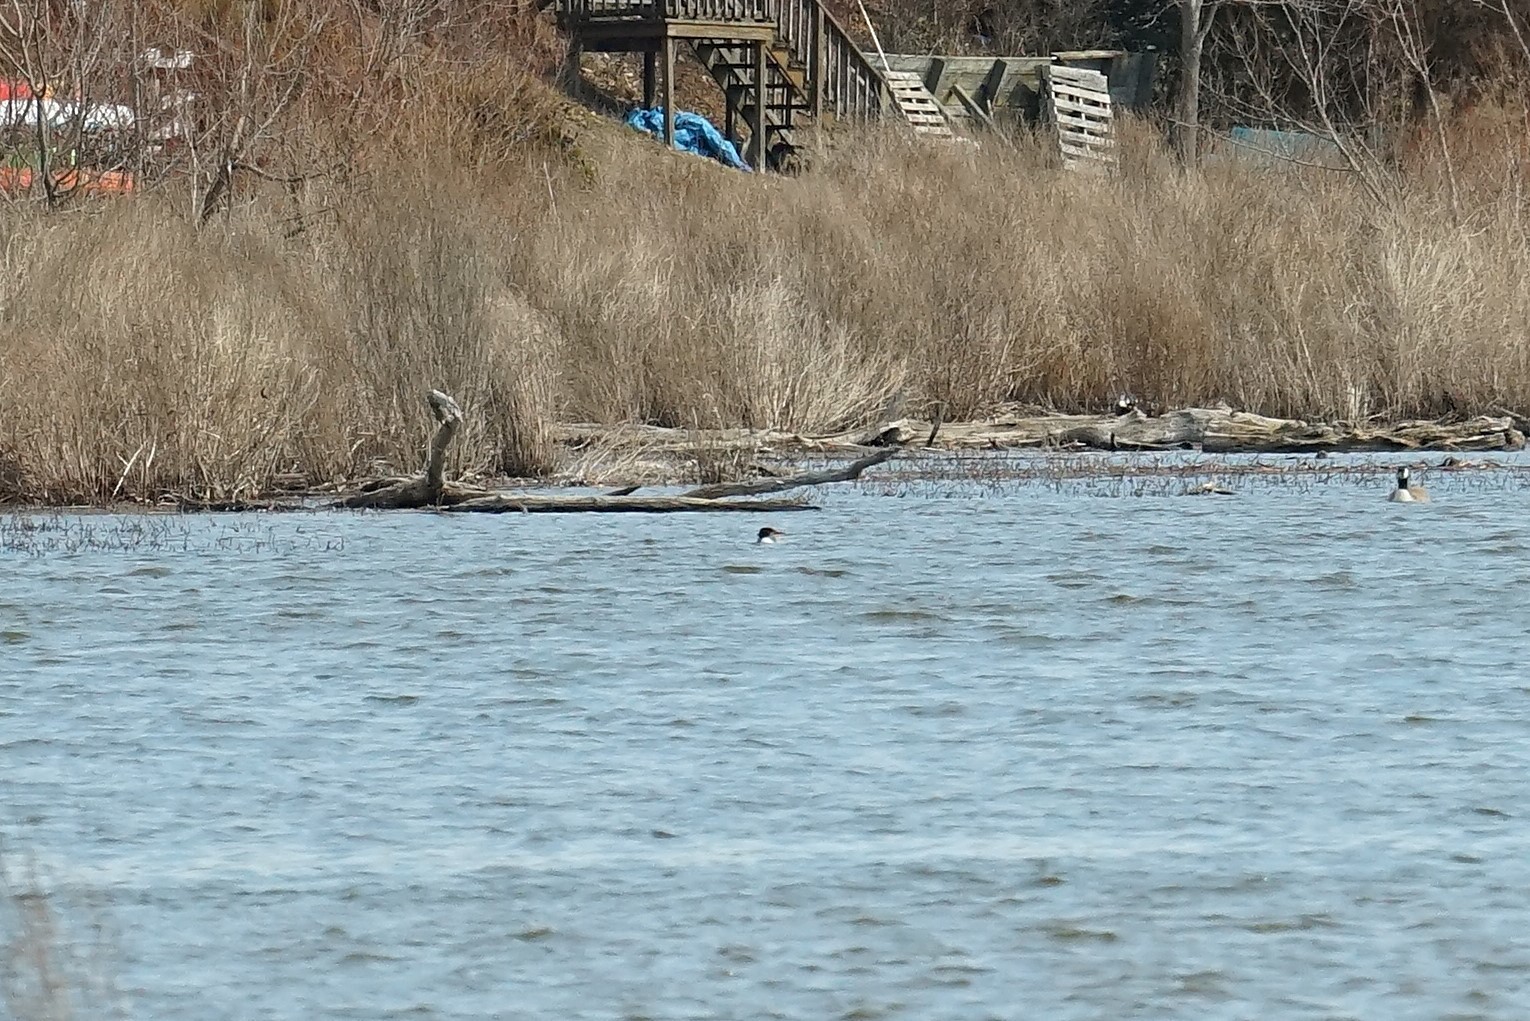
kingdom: Animalia
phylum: Chordata
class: Aves
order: Anseriformes
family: Anatidae
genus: Mergus
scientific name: Mergus merganser
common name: Common merganser
